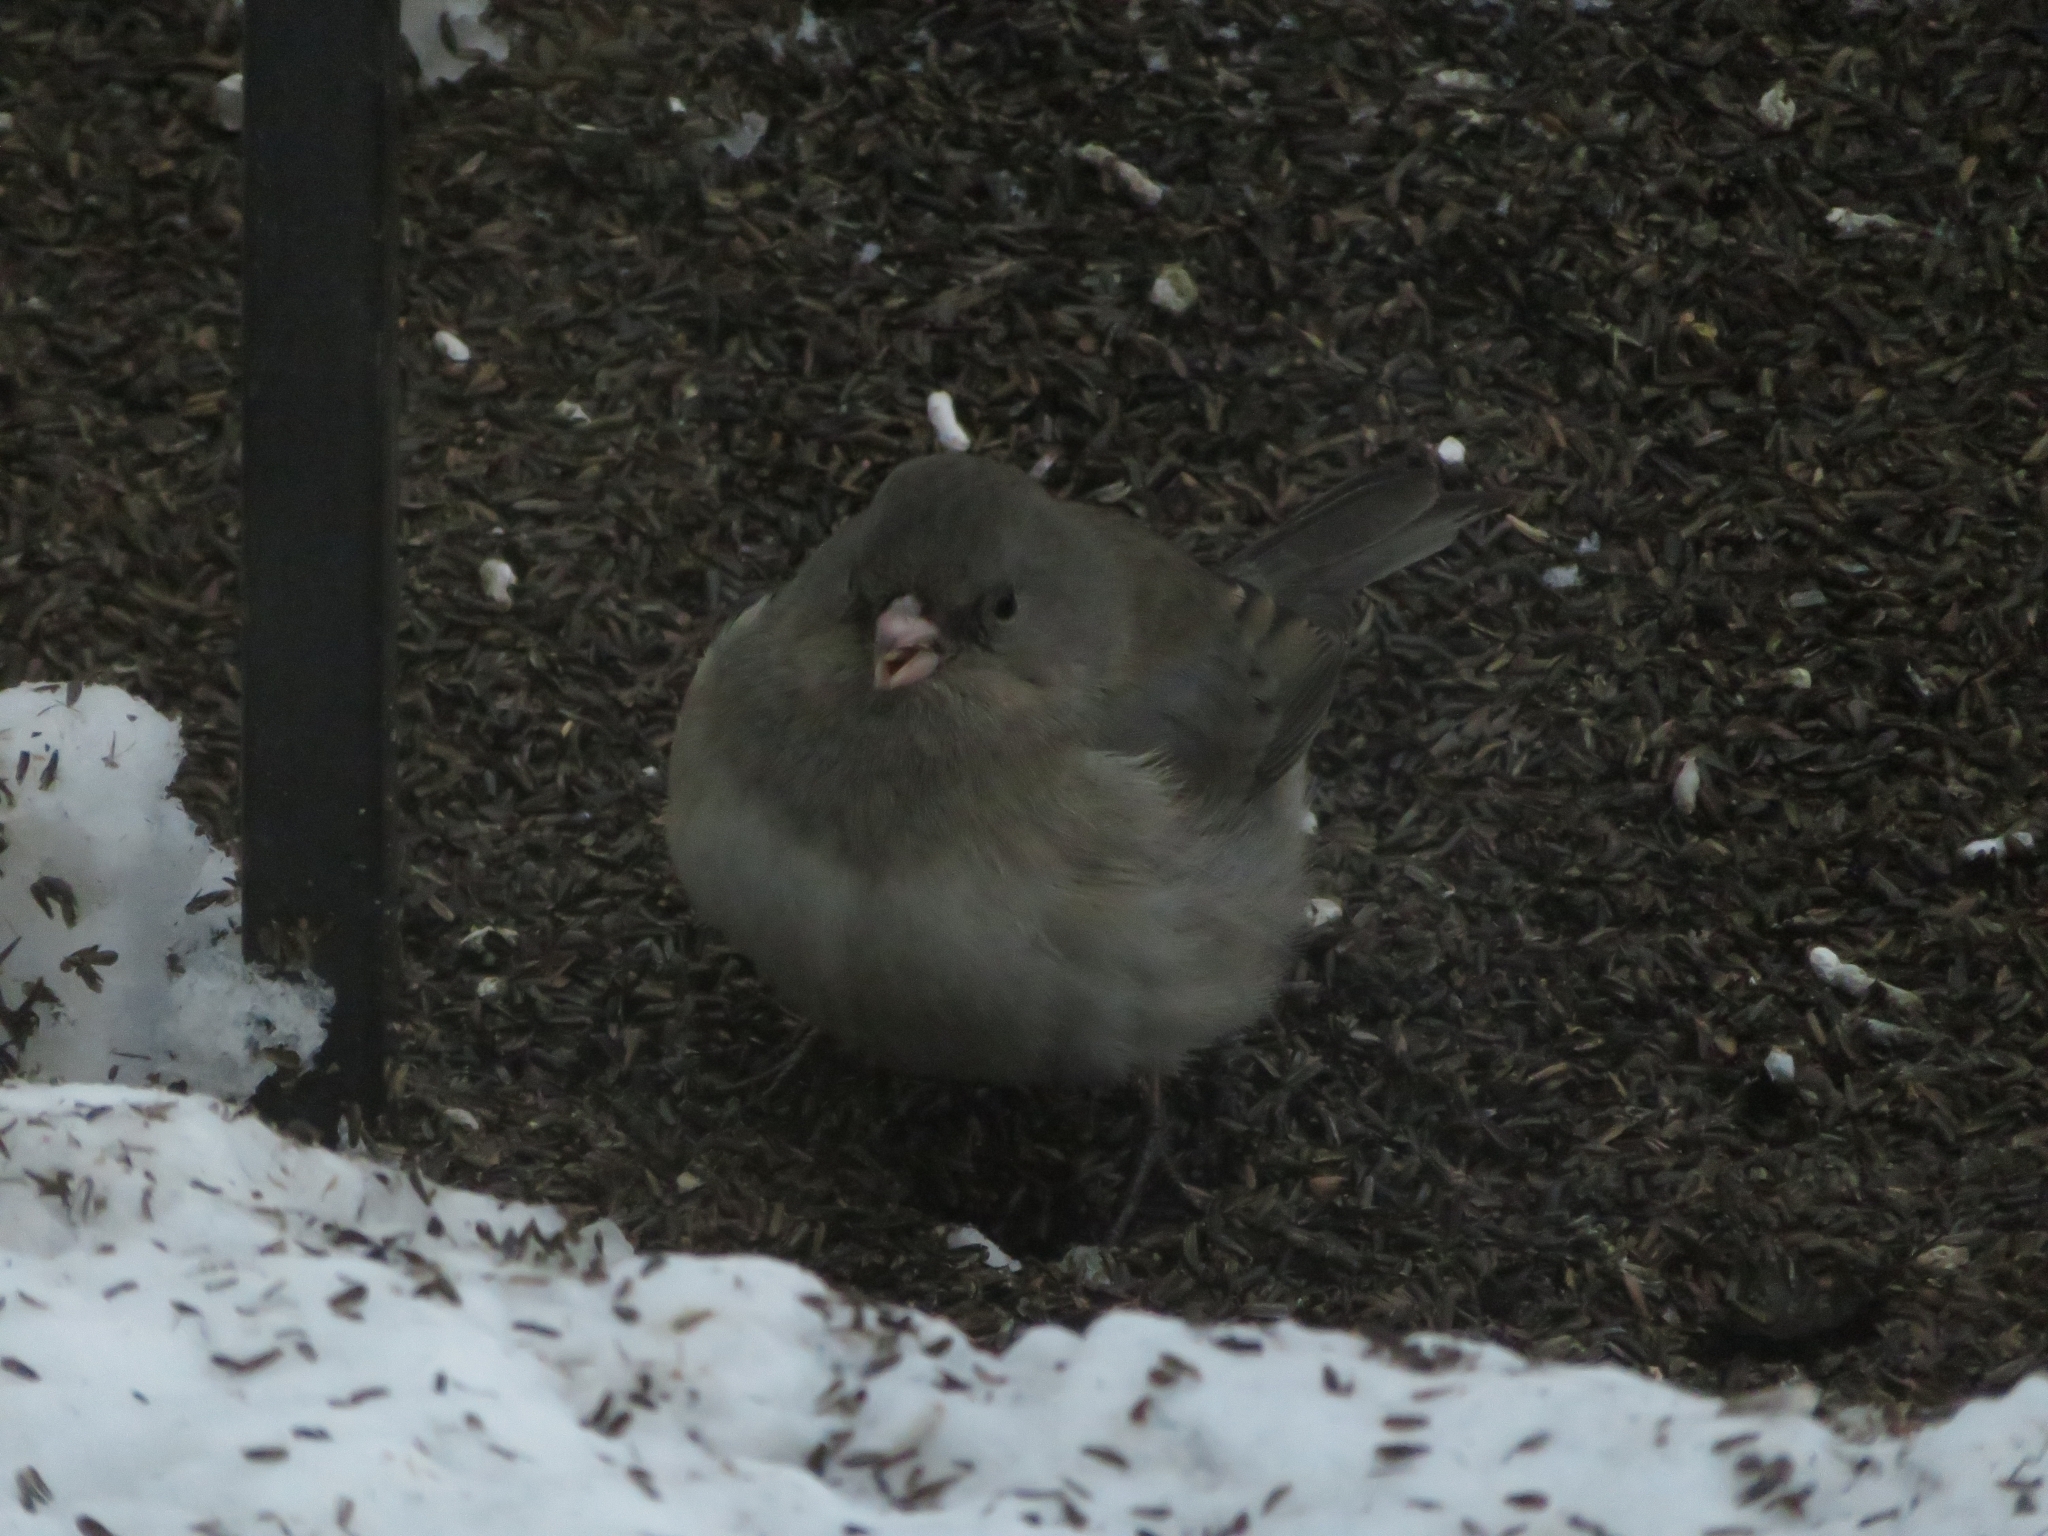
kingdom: Animalia
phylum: Chordata
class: Aves
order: Passeriformes
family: Passerellidae
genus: Junco
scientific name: Junco hyemalis
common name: Dark-eyed junco
